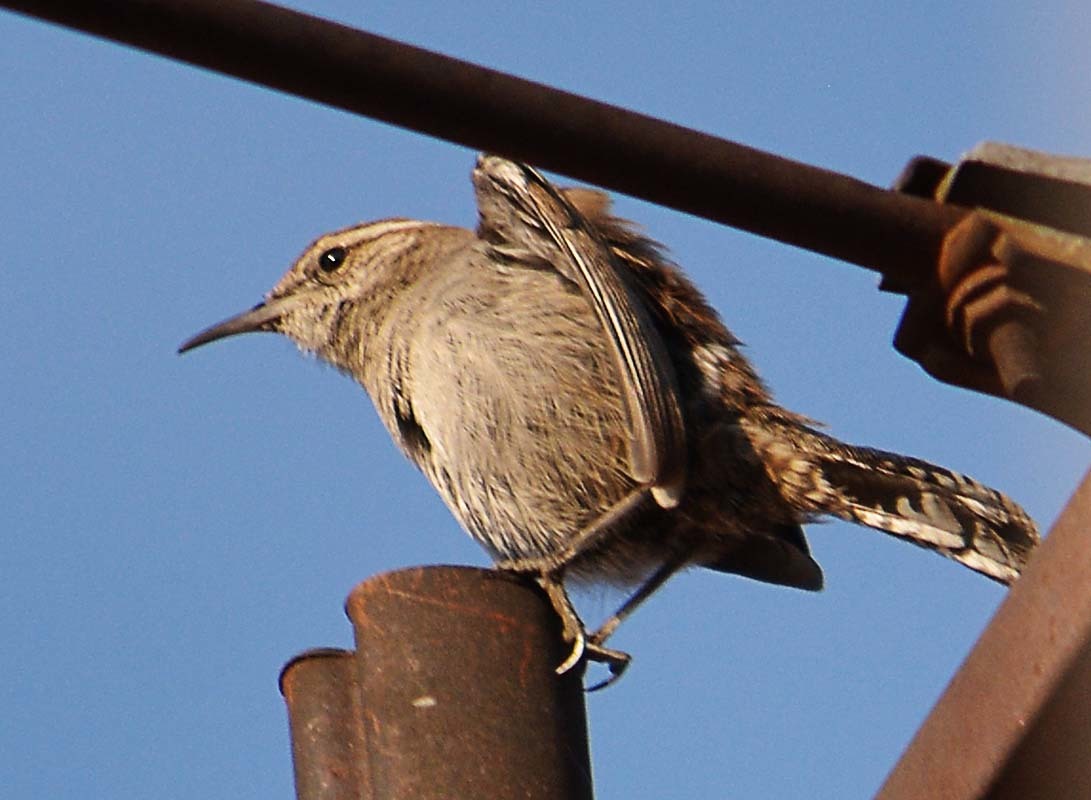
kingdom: Animalia
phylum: Chordata
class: Aves
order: Passeriformes
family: Troglodytidae
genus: Thryomanes
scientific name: Thryomanes bewickii
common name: Bewick's wren
